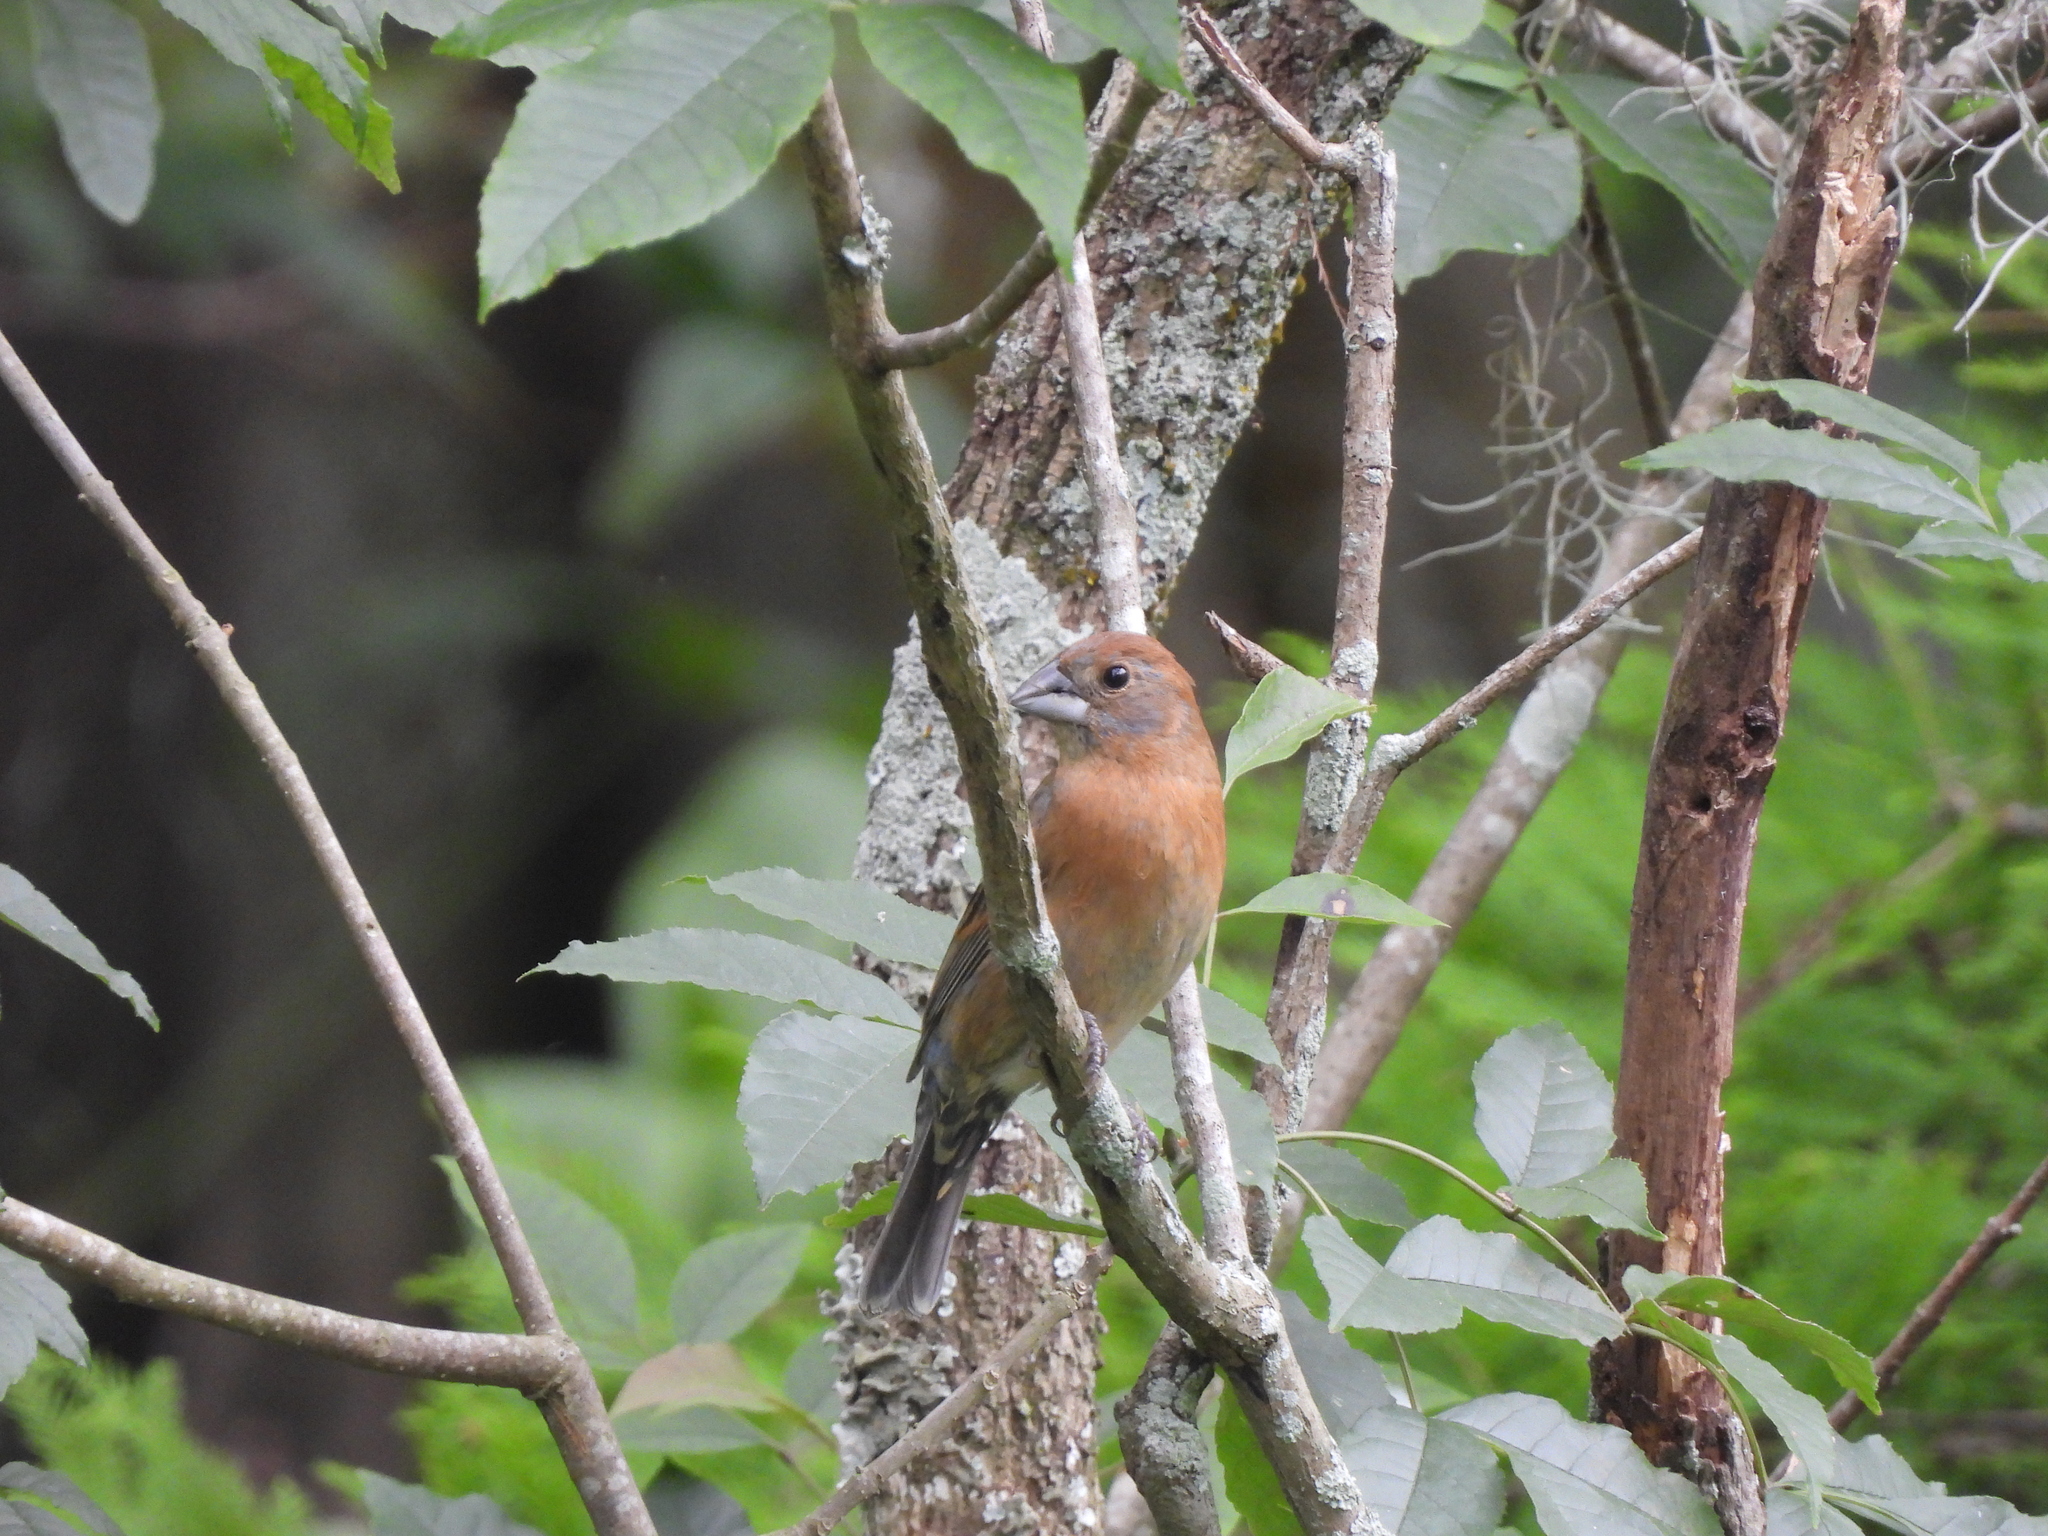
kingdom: Animalia
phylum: Chordata
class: Aves
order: Passeriformes
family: Cardinalidae
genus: Passerina
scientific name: Passerina caerulea
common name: Blue grosbeak
